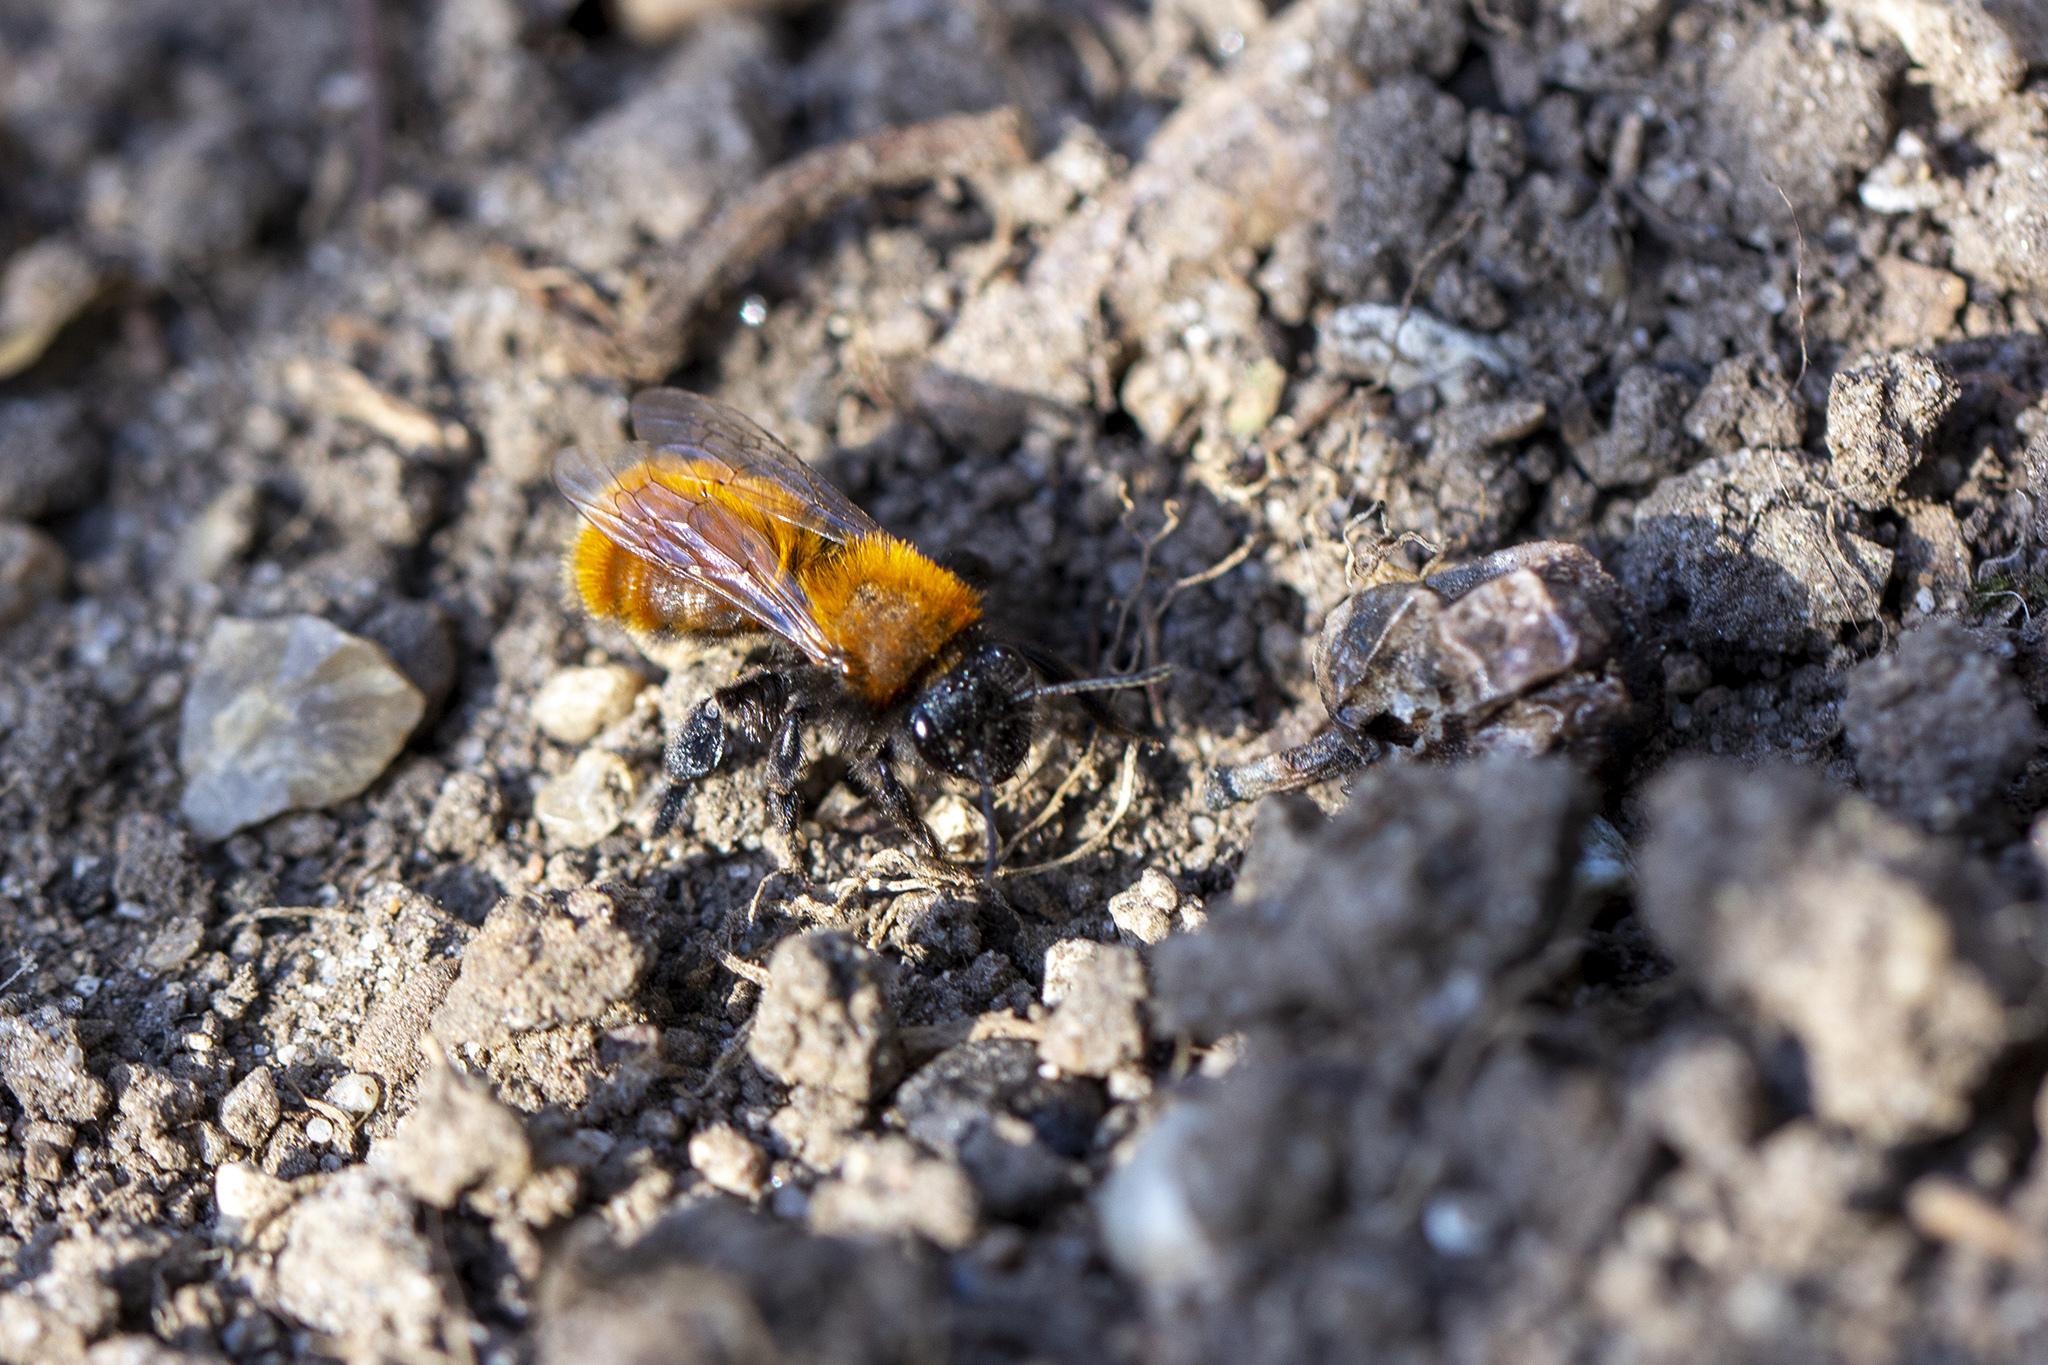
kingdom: Animalia
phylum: Arthropoda
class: Insecta
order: Hymenoptera
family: Andrenidae
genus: Andrena
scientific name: Andrena fulva
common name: Tawny mining bee
